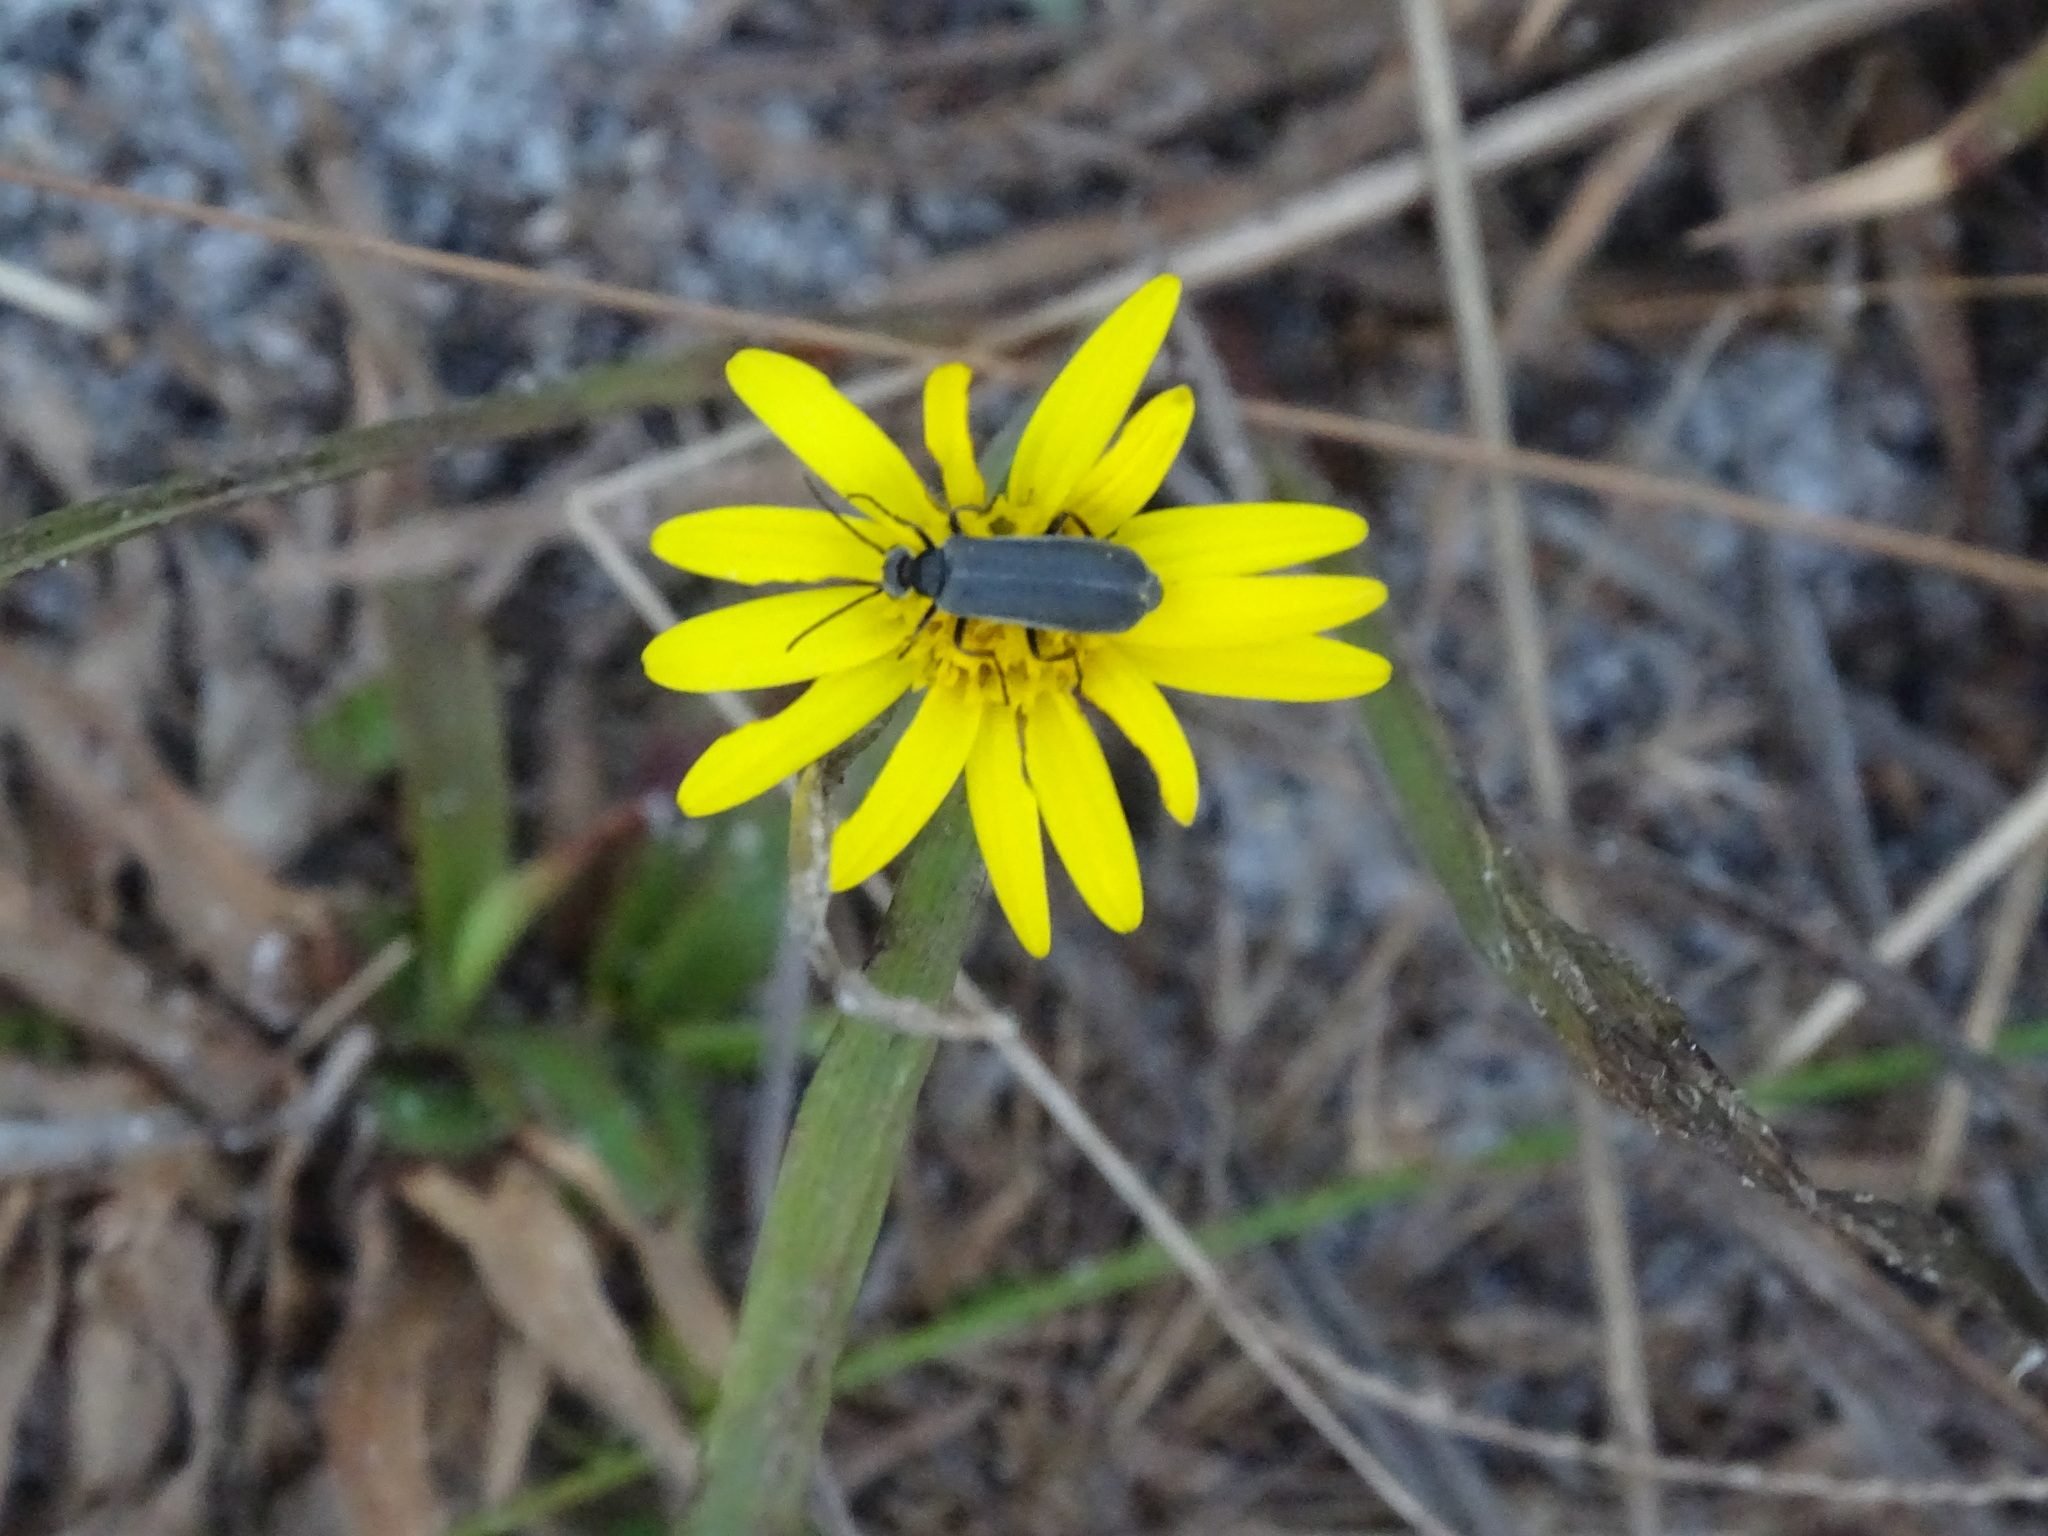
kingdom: Animalia
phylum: Arthropoda
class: Insecta
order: Coleoptera
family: Meloidae
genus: Epicauta
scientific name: Epicauta heterodera
